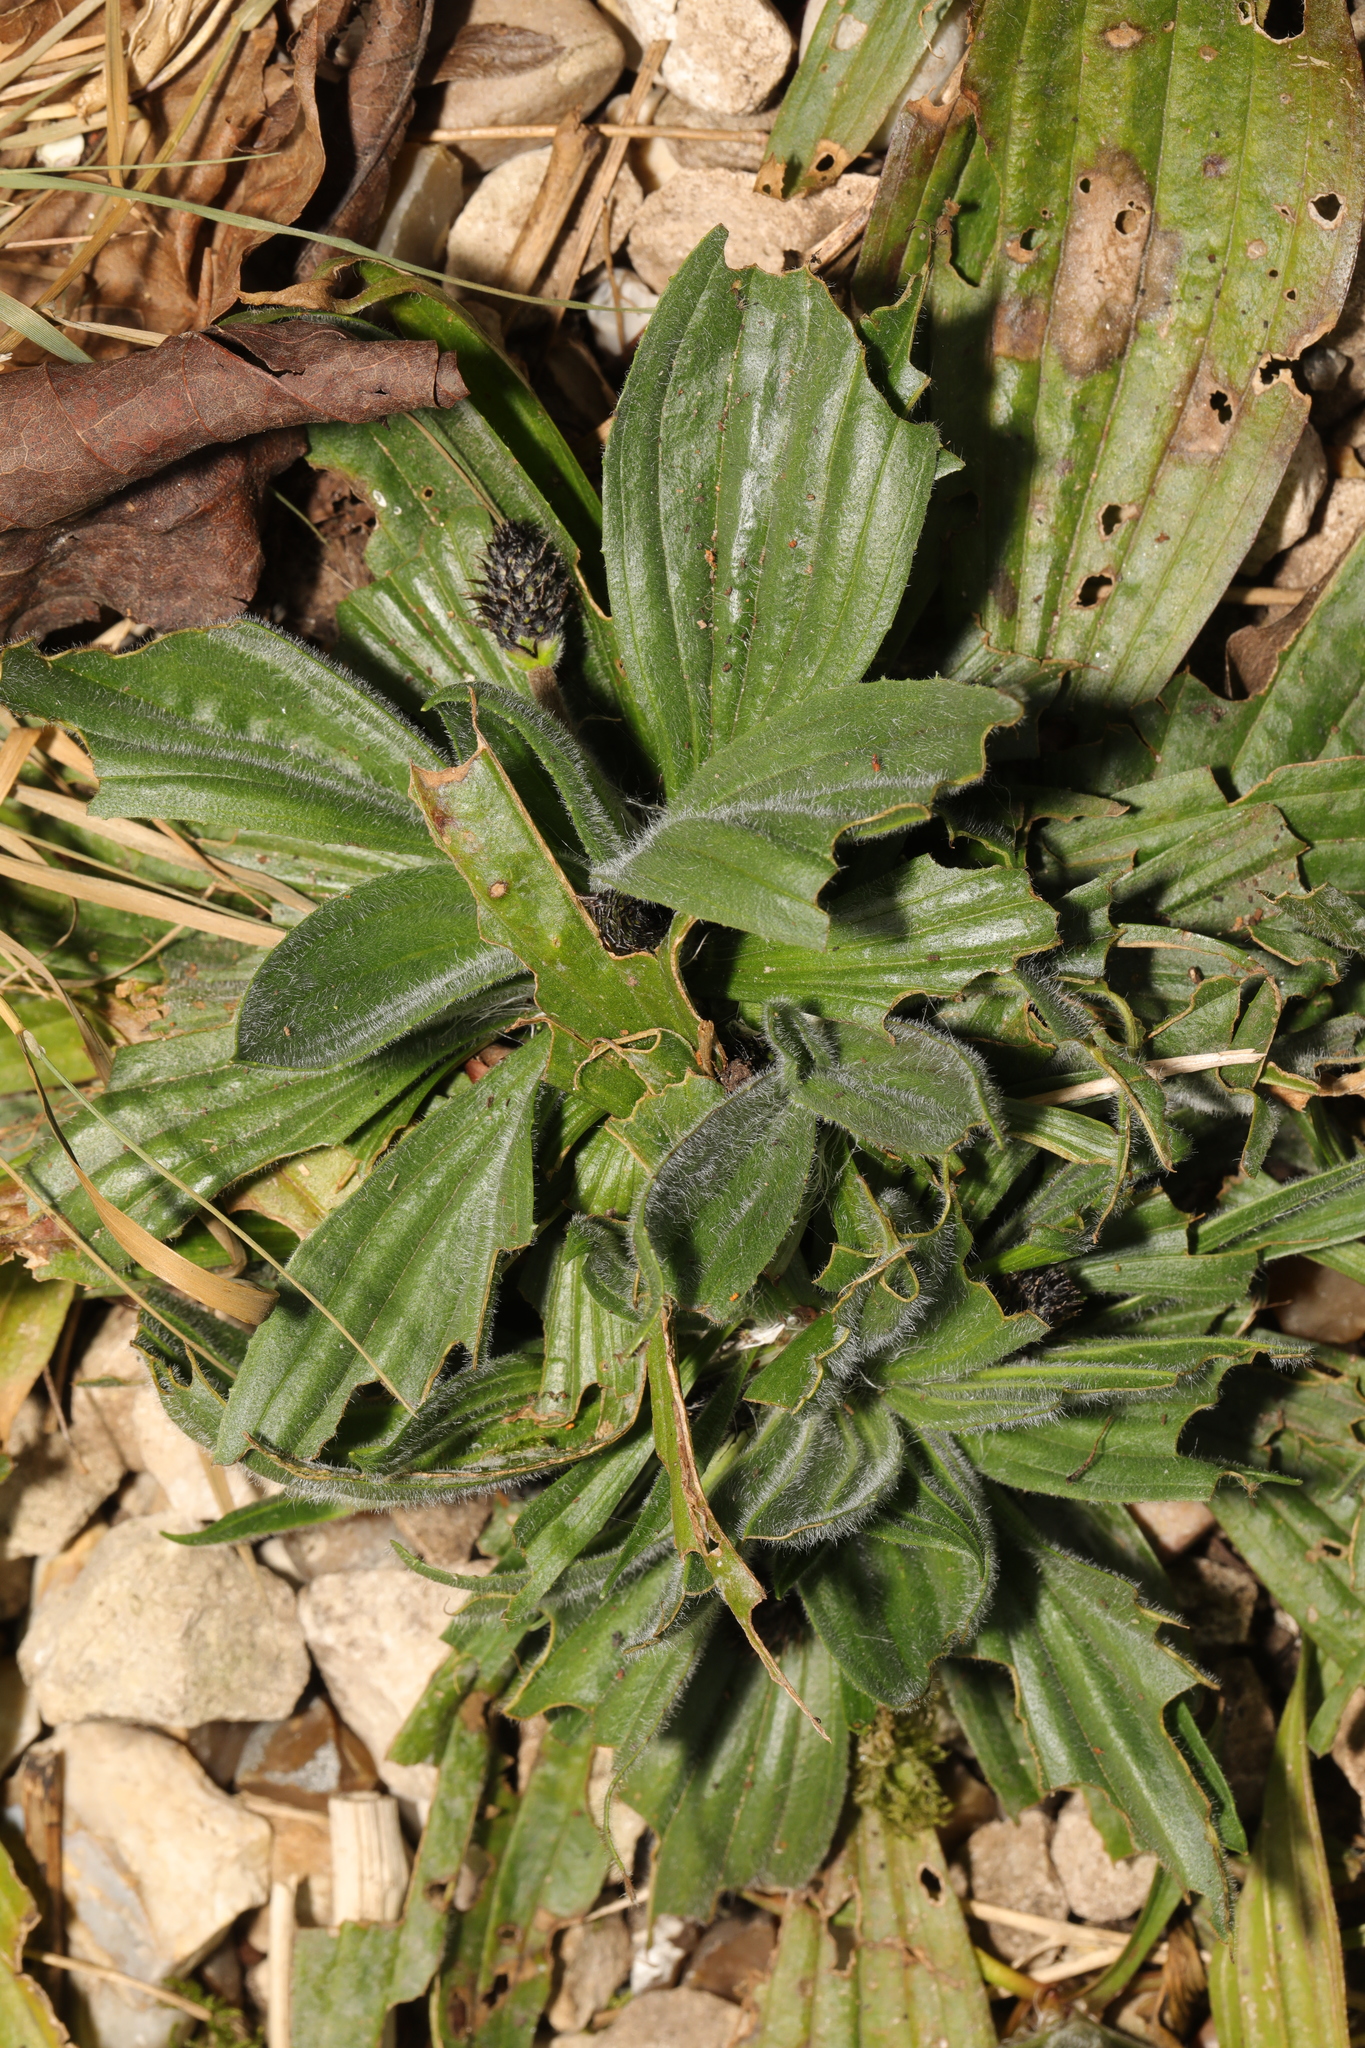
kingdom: Plantae
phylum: Tracheophyta
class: Magnoliopsida
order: Lamiales
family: Plantaginaceae
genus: Plantago
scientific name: Plantago lanceolata
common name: Ribwort plantain
